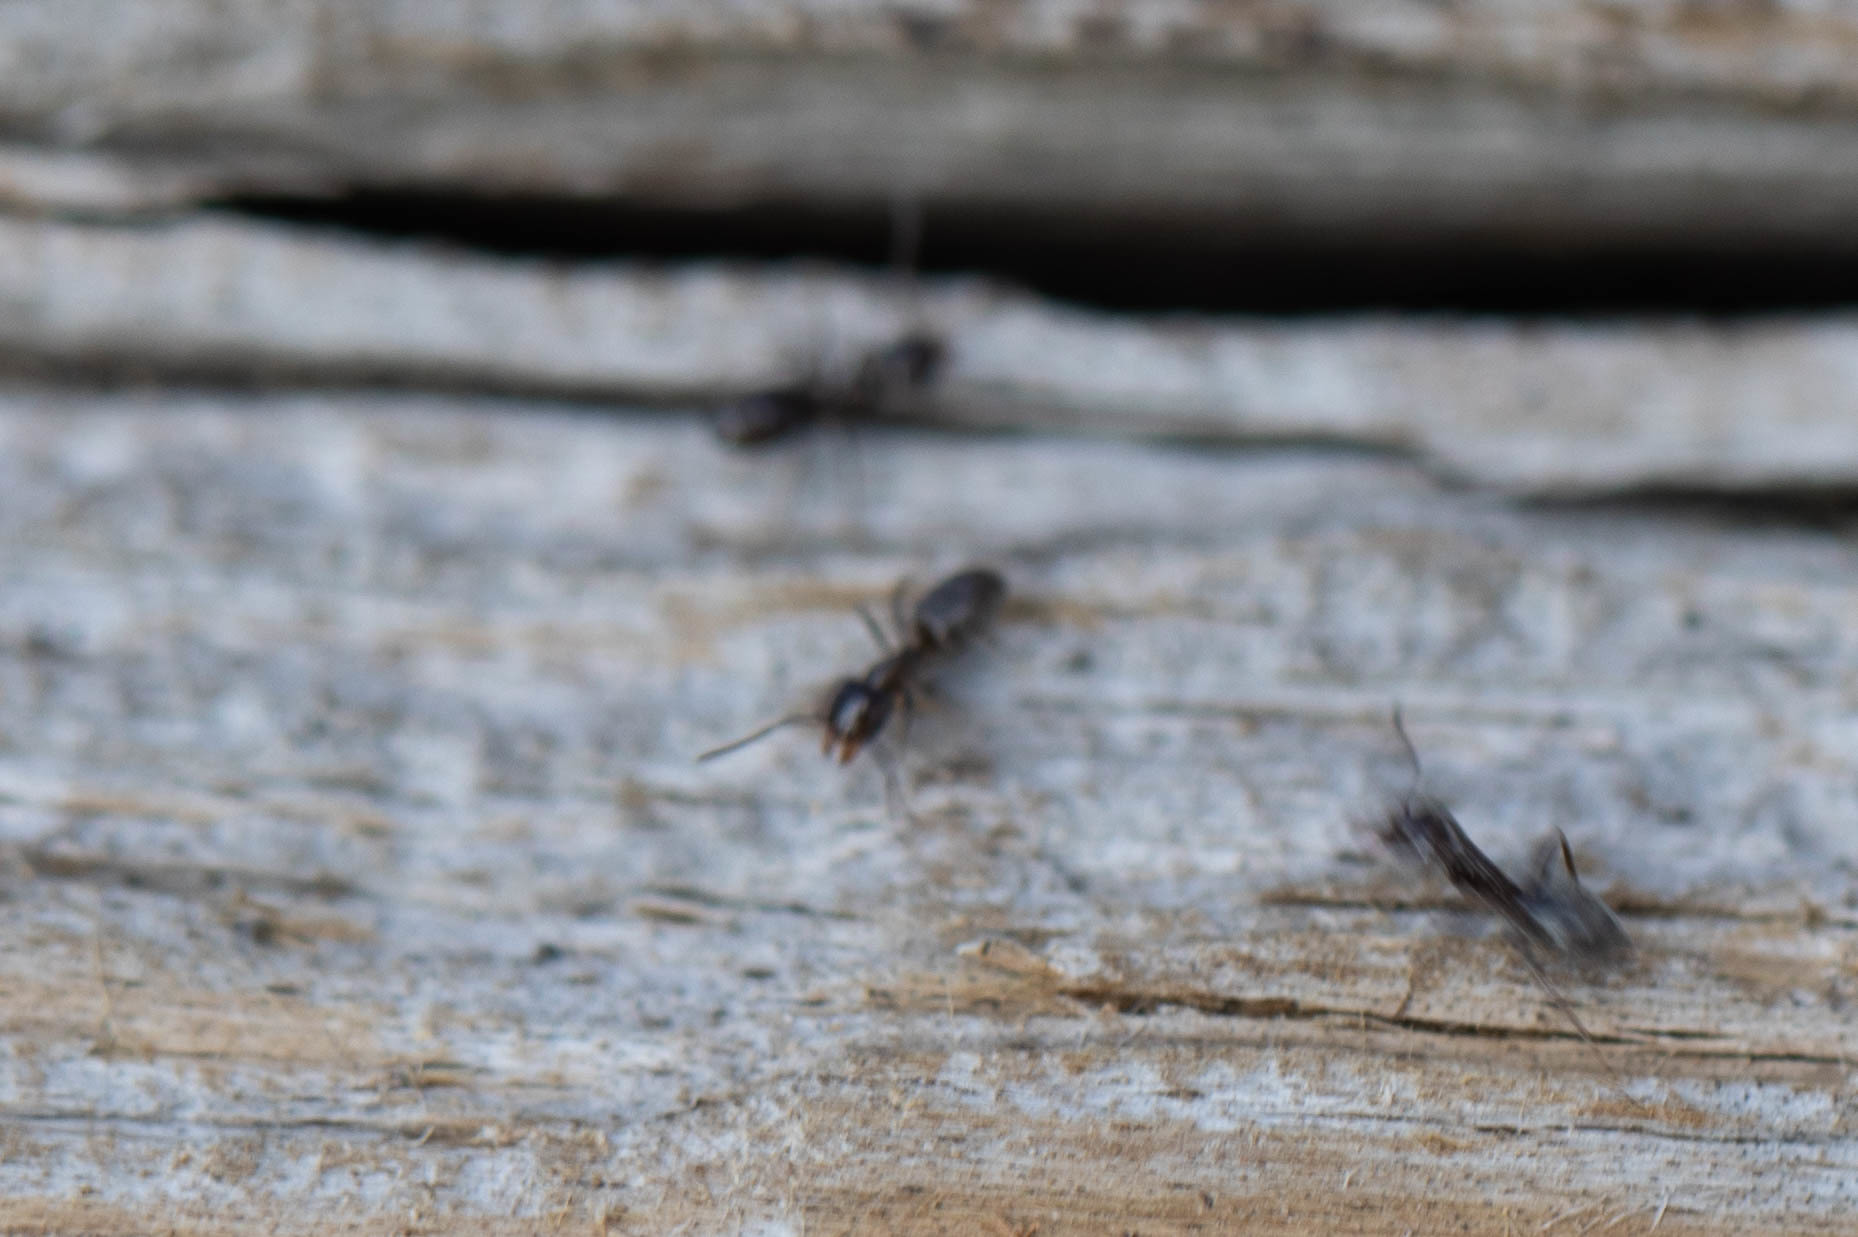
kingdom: Animalia
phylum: Arthropoda
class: Insecta
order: Hymenoptera
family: Formicidae
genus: Liometopum
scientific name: Liometopum luctuosum
